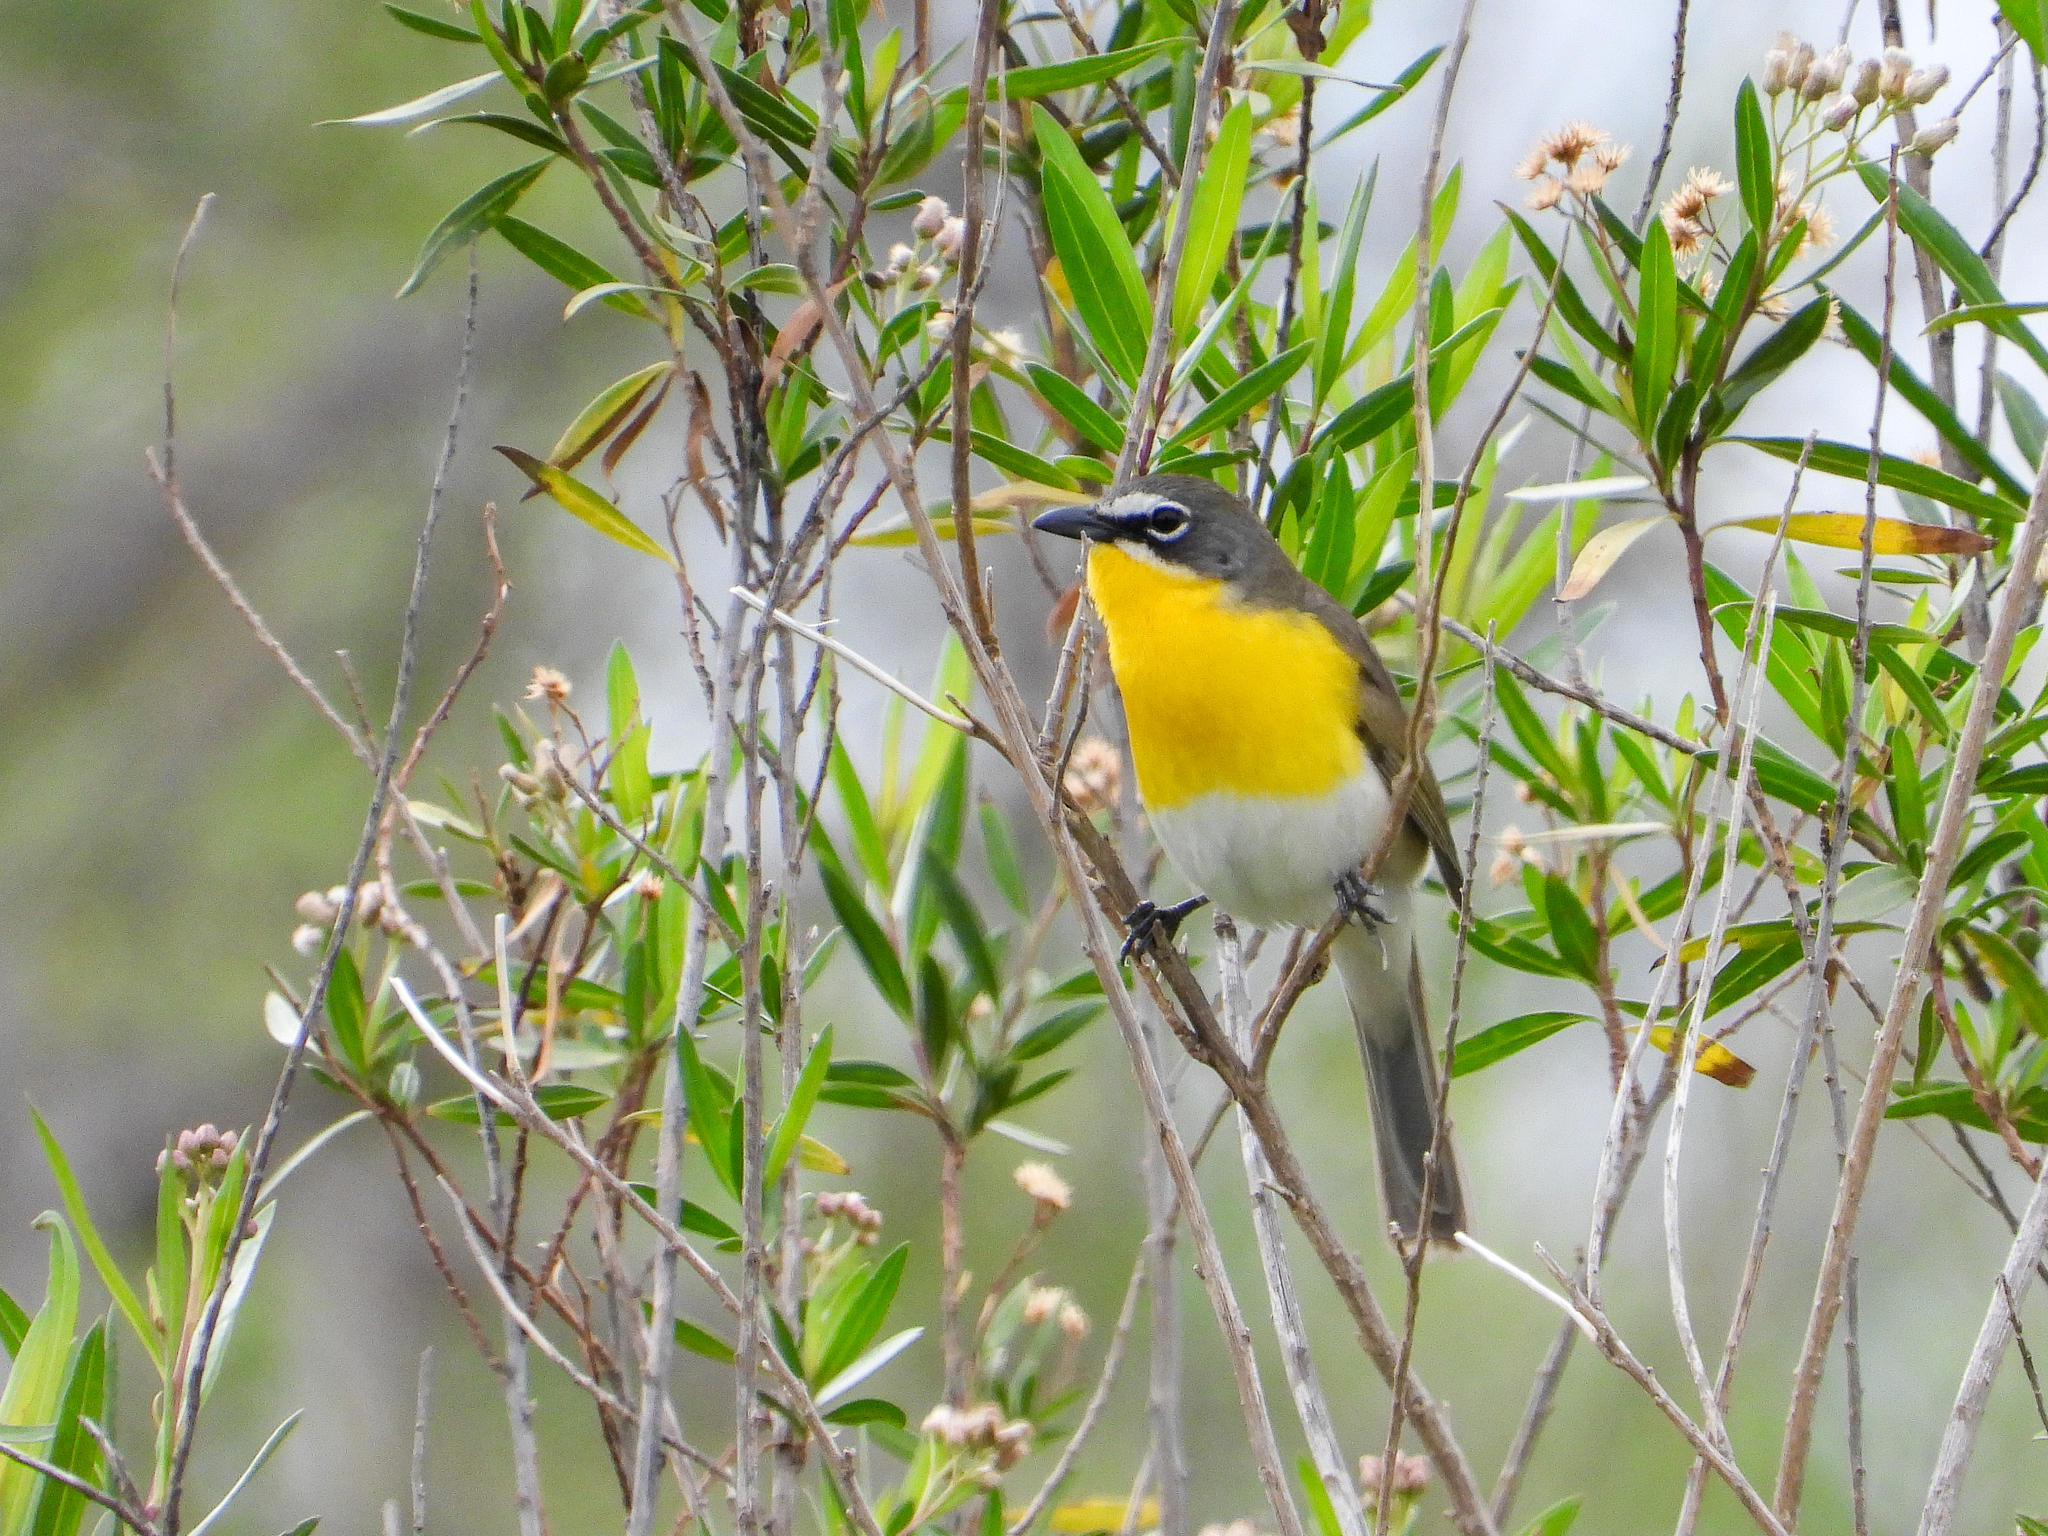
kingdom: Animalia
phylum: Chordata
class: Aves
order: Passeriformes
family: Parulidae
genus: Icteria
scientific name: Icteria virens
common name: Yellow-breasted chat
